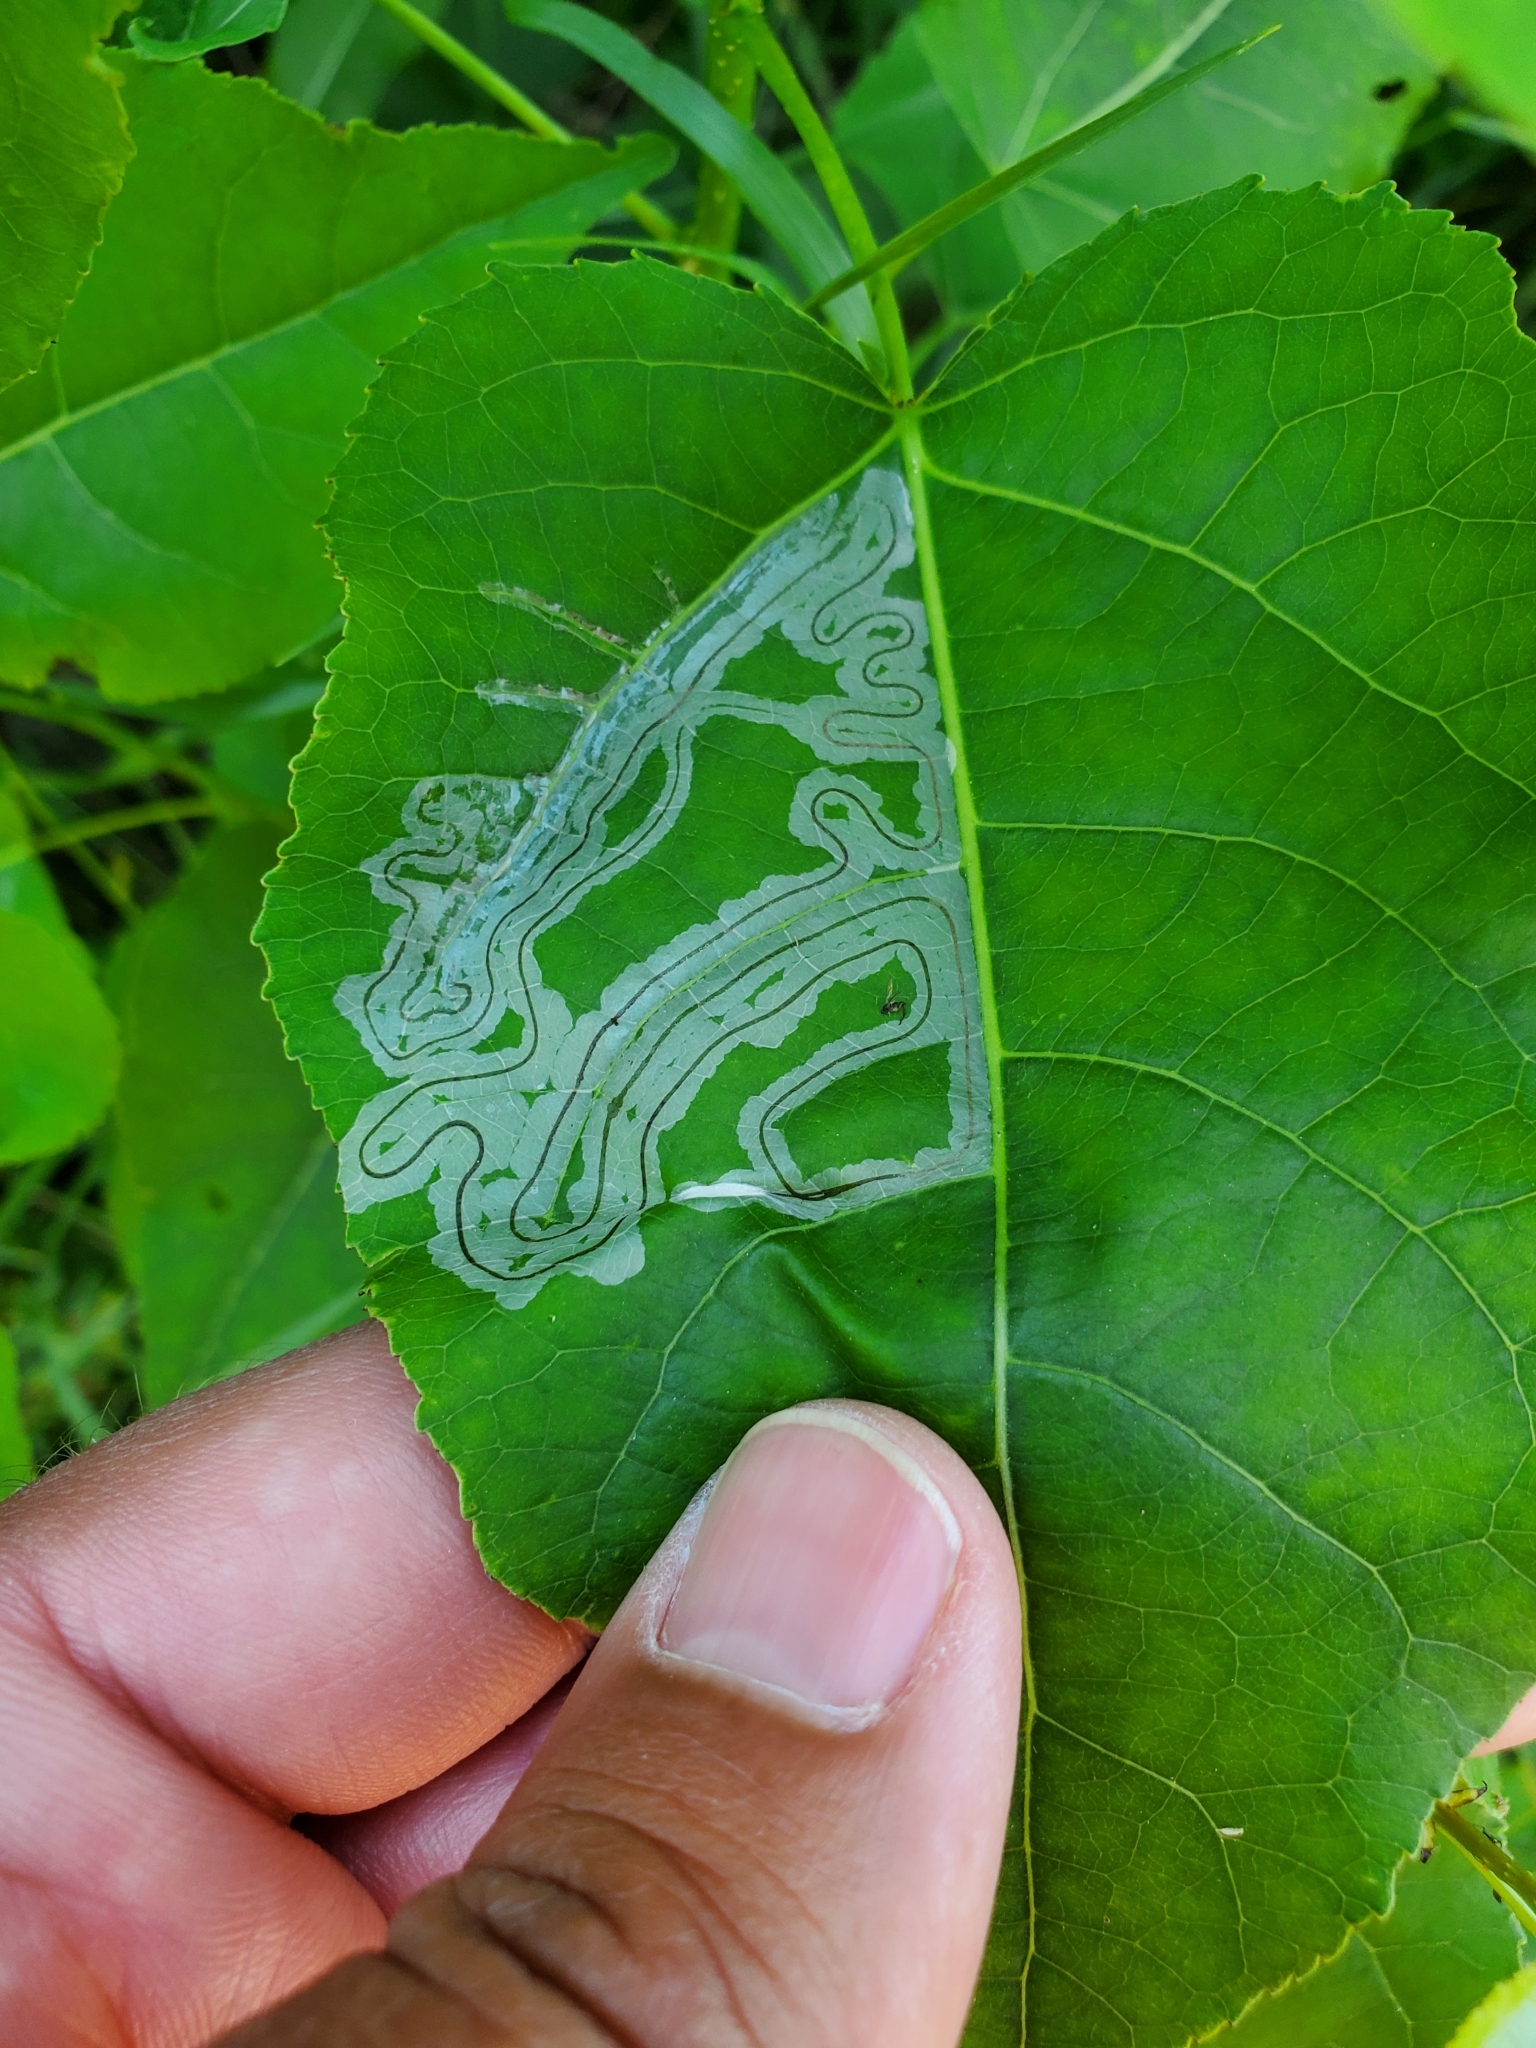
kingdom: Animalia
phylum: Arthropoda
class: Insecta
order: Lepidoptera
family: Gracillariidae
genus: Phyllocnistis
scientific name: Phyllocnistis populiella
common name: Aspen serpentine leafminer moth
